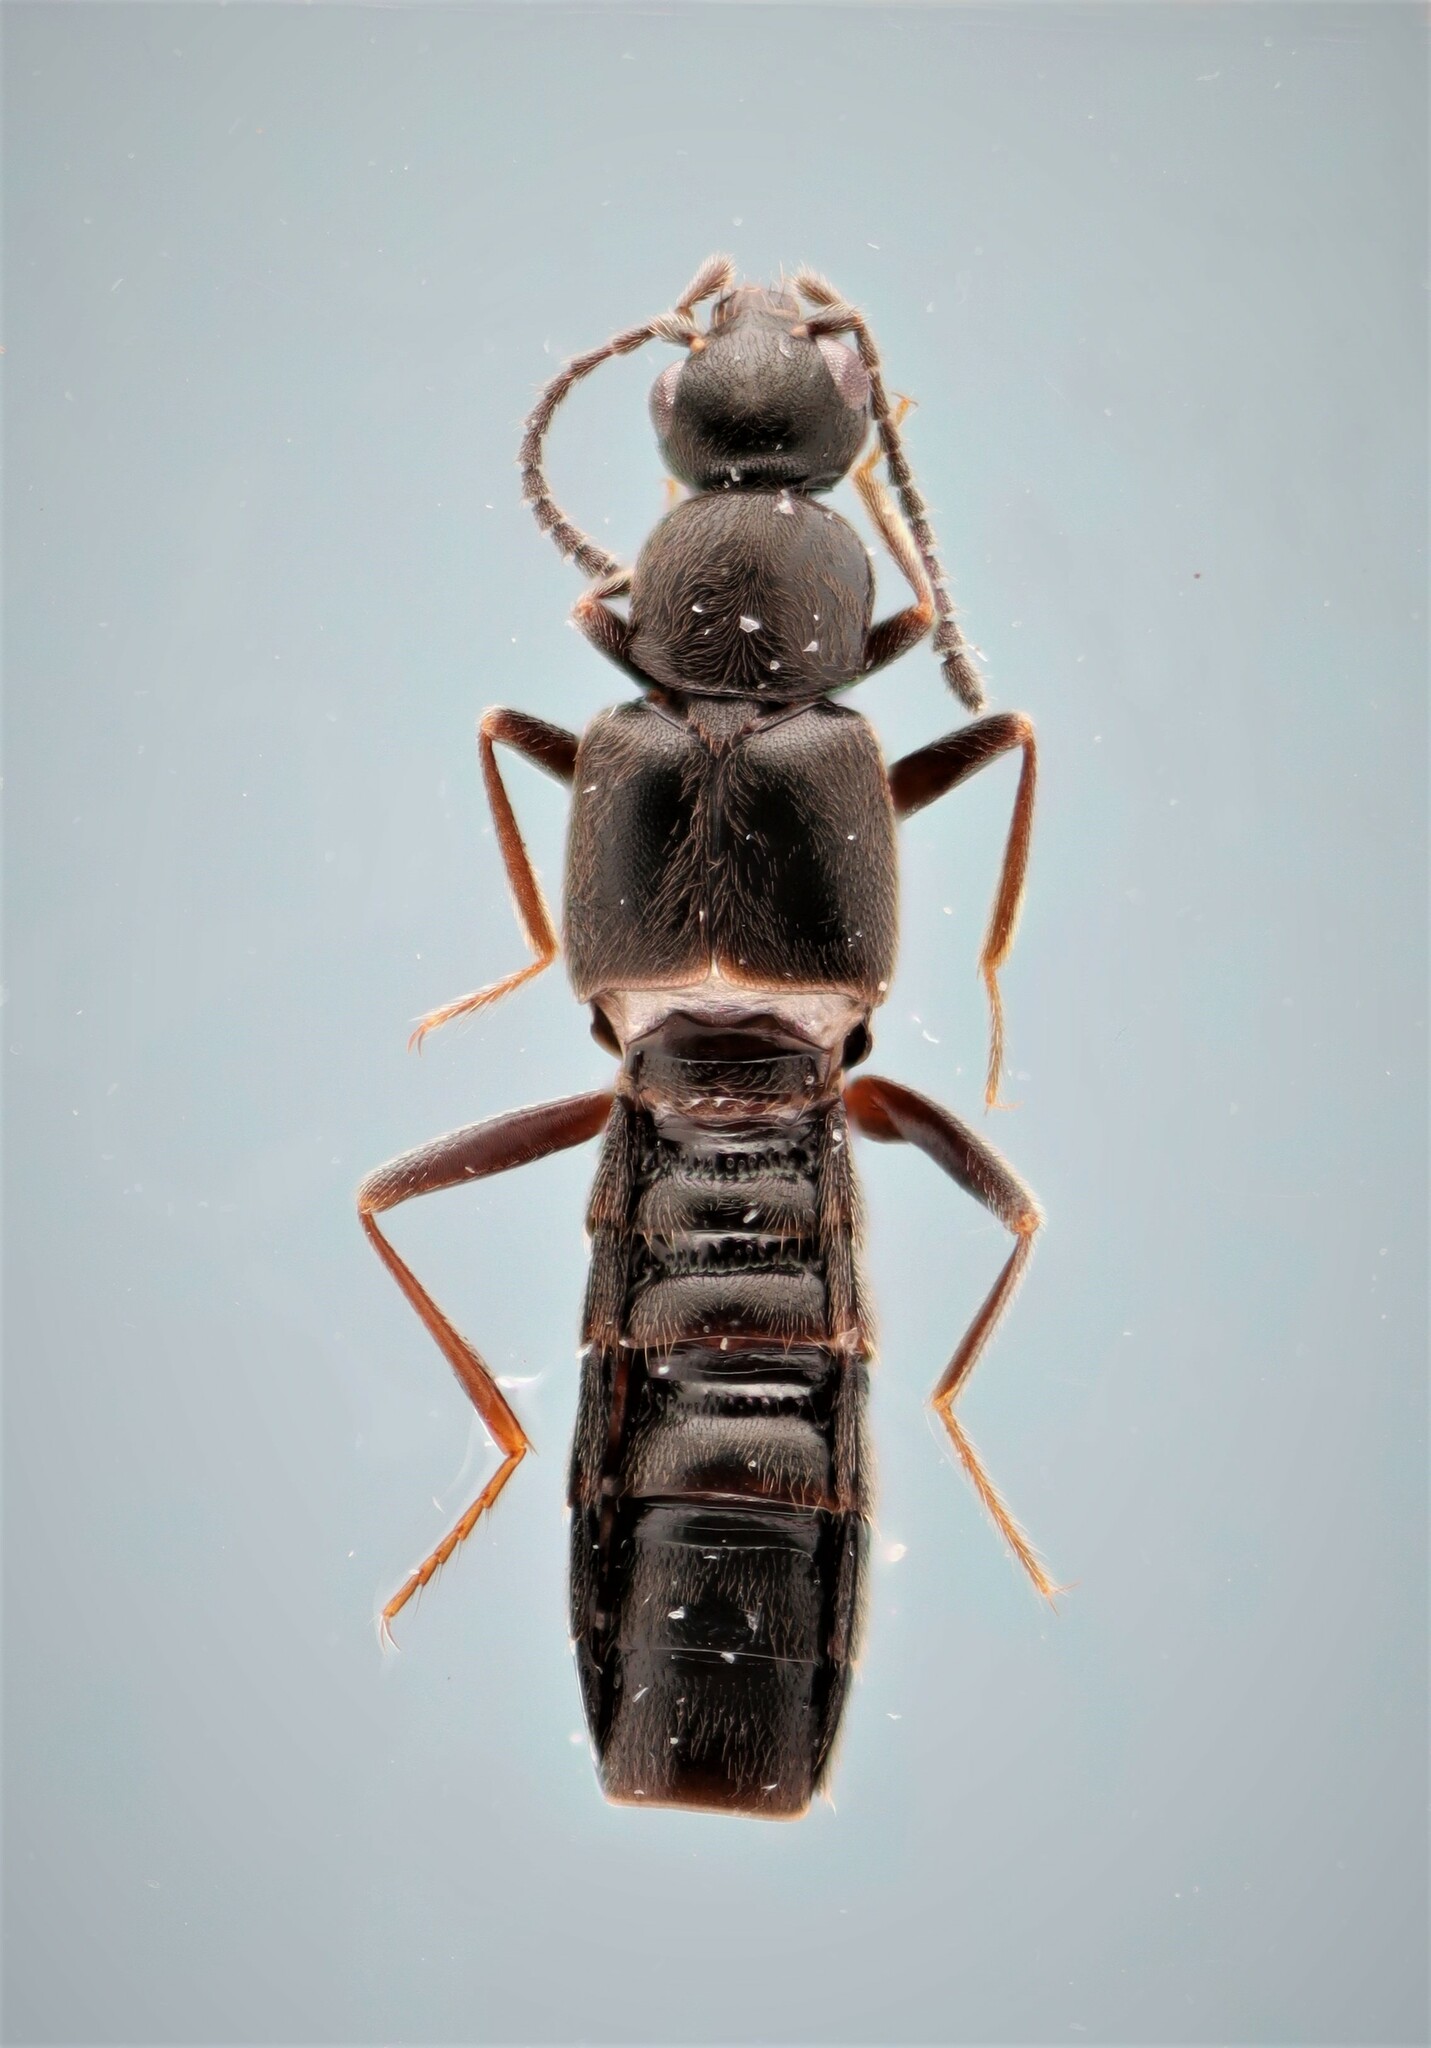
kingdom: Animalia
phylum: Arthropoda
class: Insecta
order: Coleoptera
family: Staphylinidae
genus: Dasygnypeta
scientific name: Dasygnypeta nigrella
